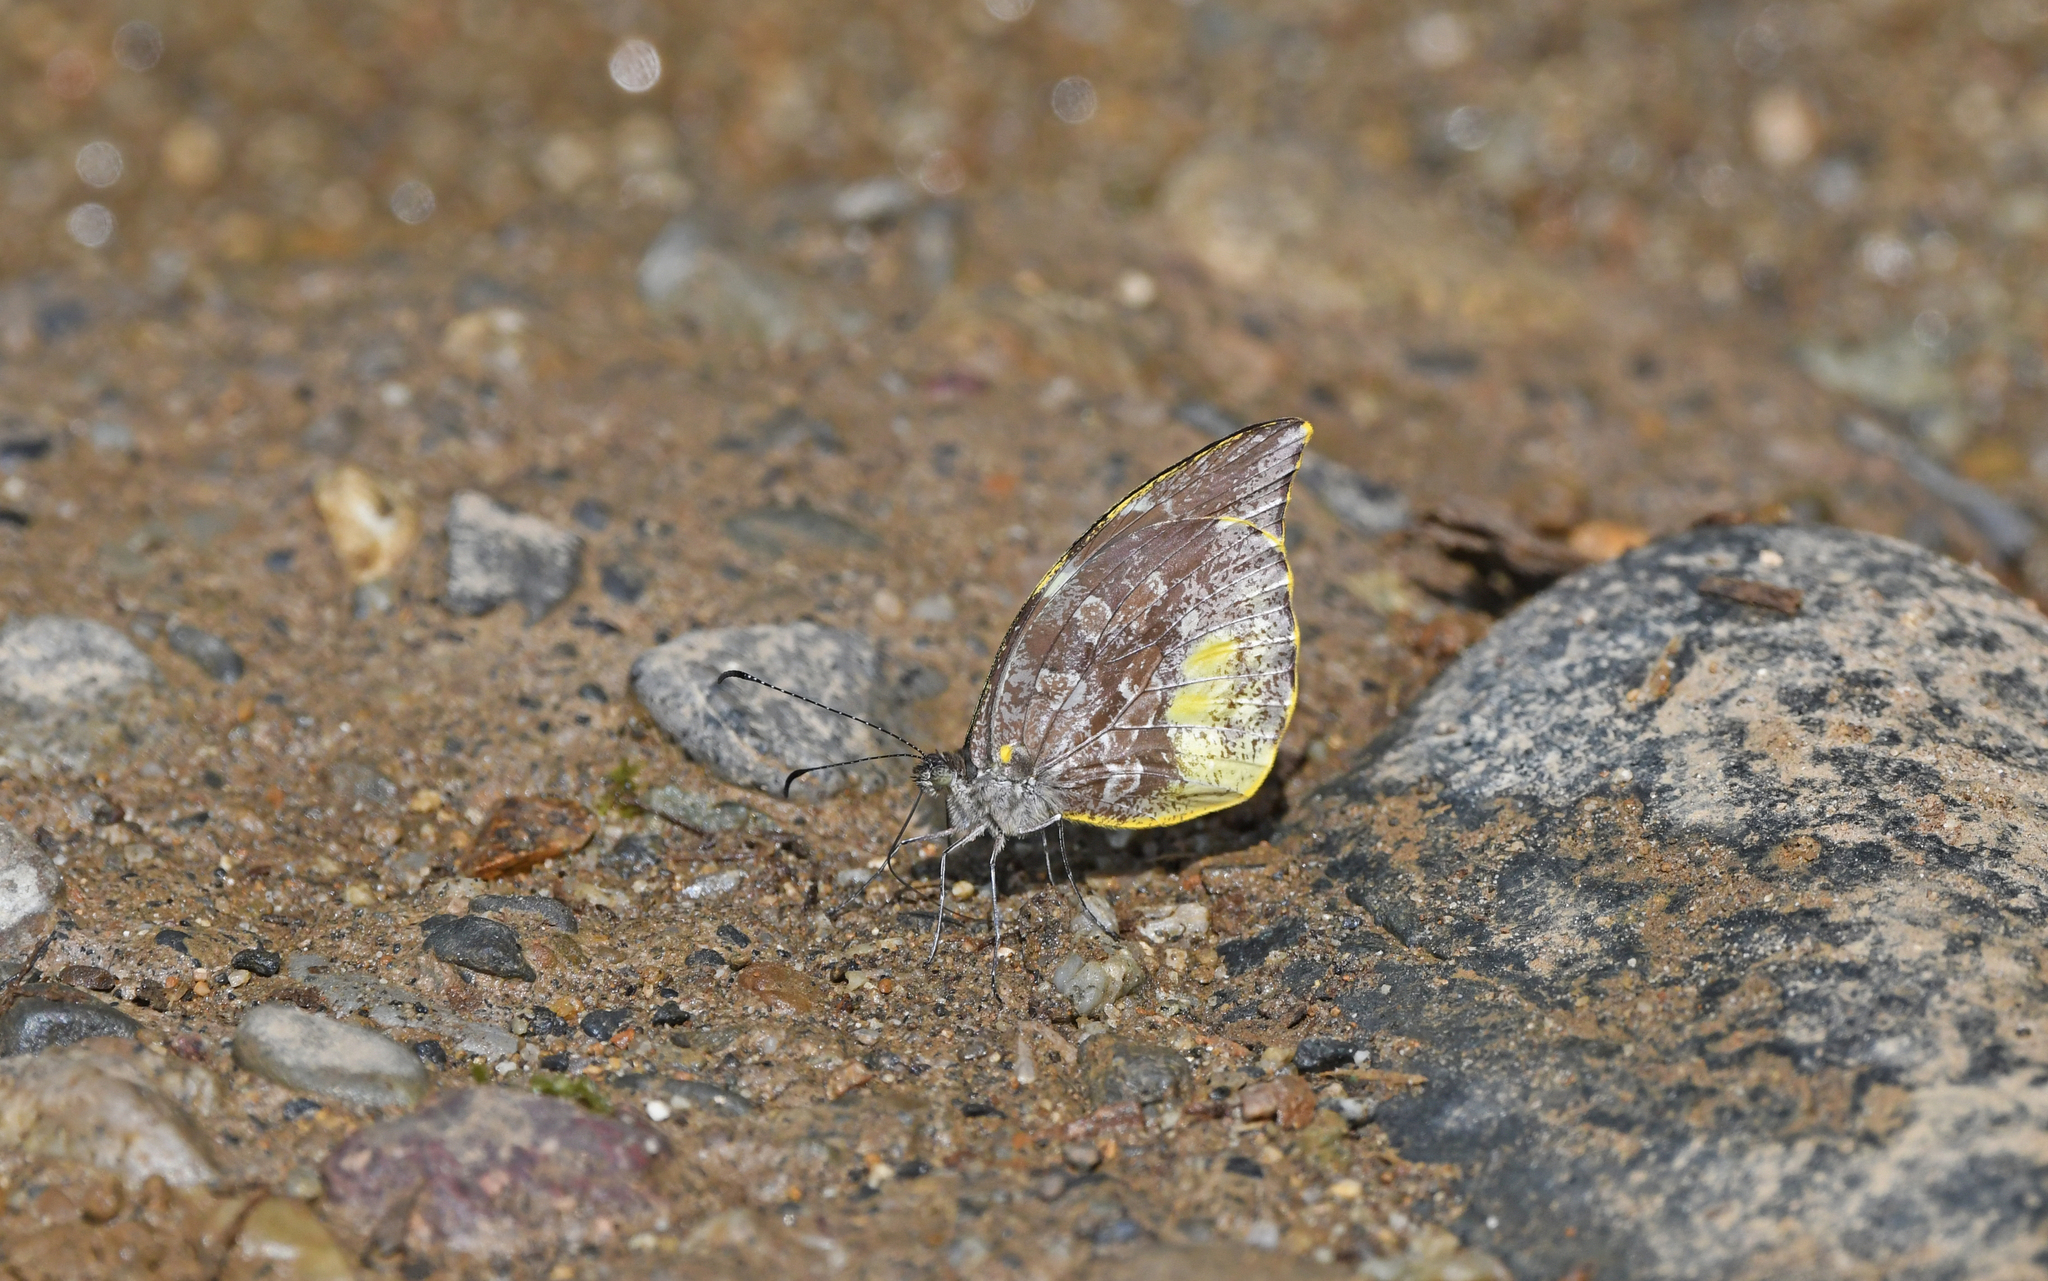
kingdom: Animalia
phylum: Arthropoda
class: Insecta
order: Lepidoptera
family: Pieridae
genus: Lieinix
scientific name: Lieinix nemesis
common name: Frosted mimic-white
